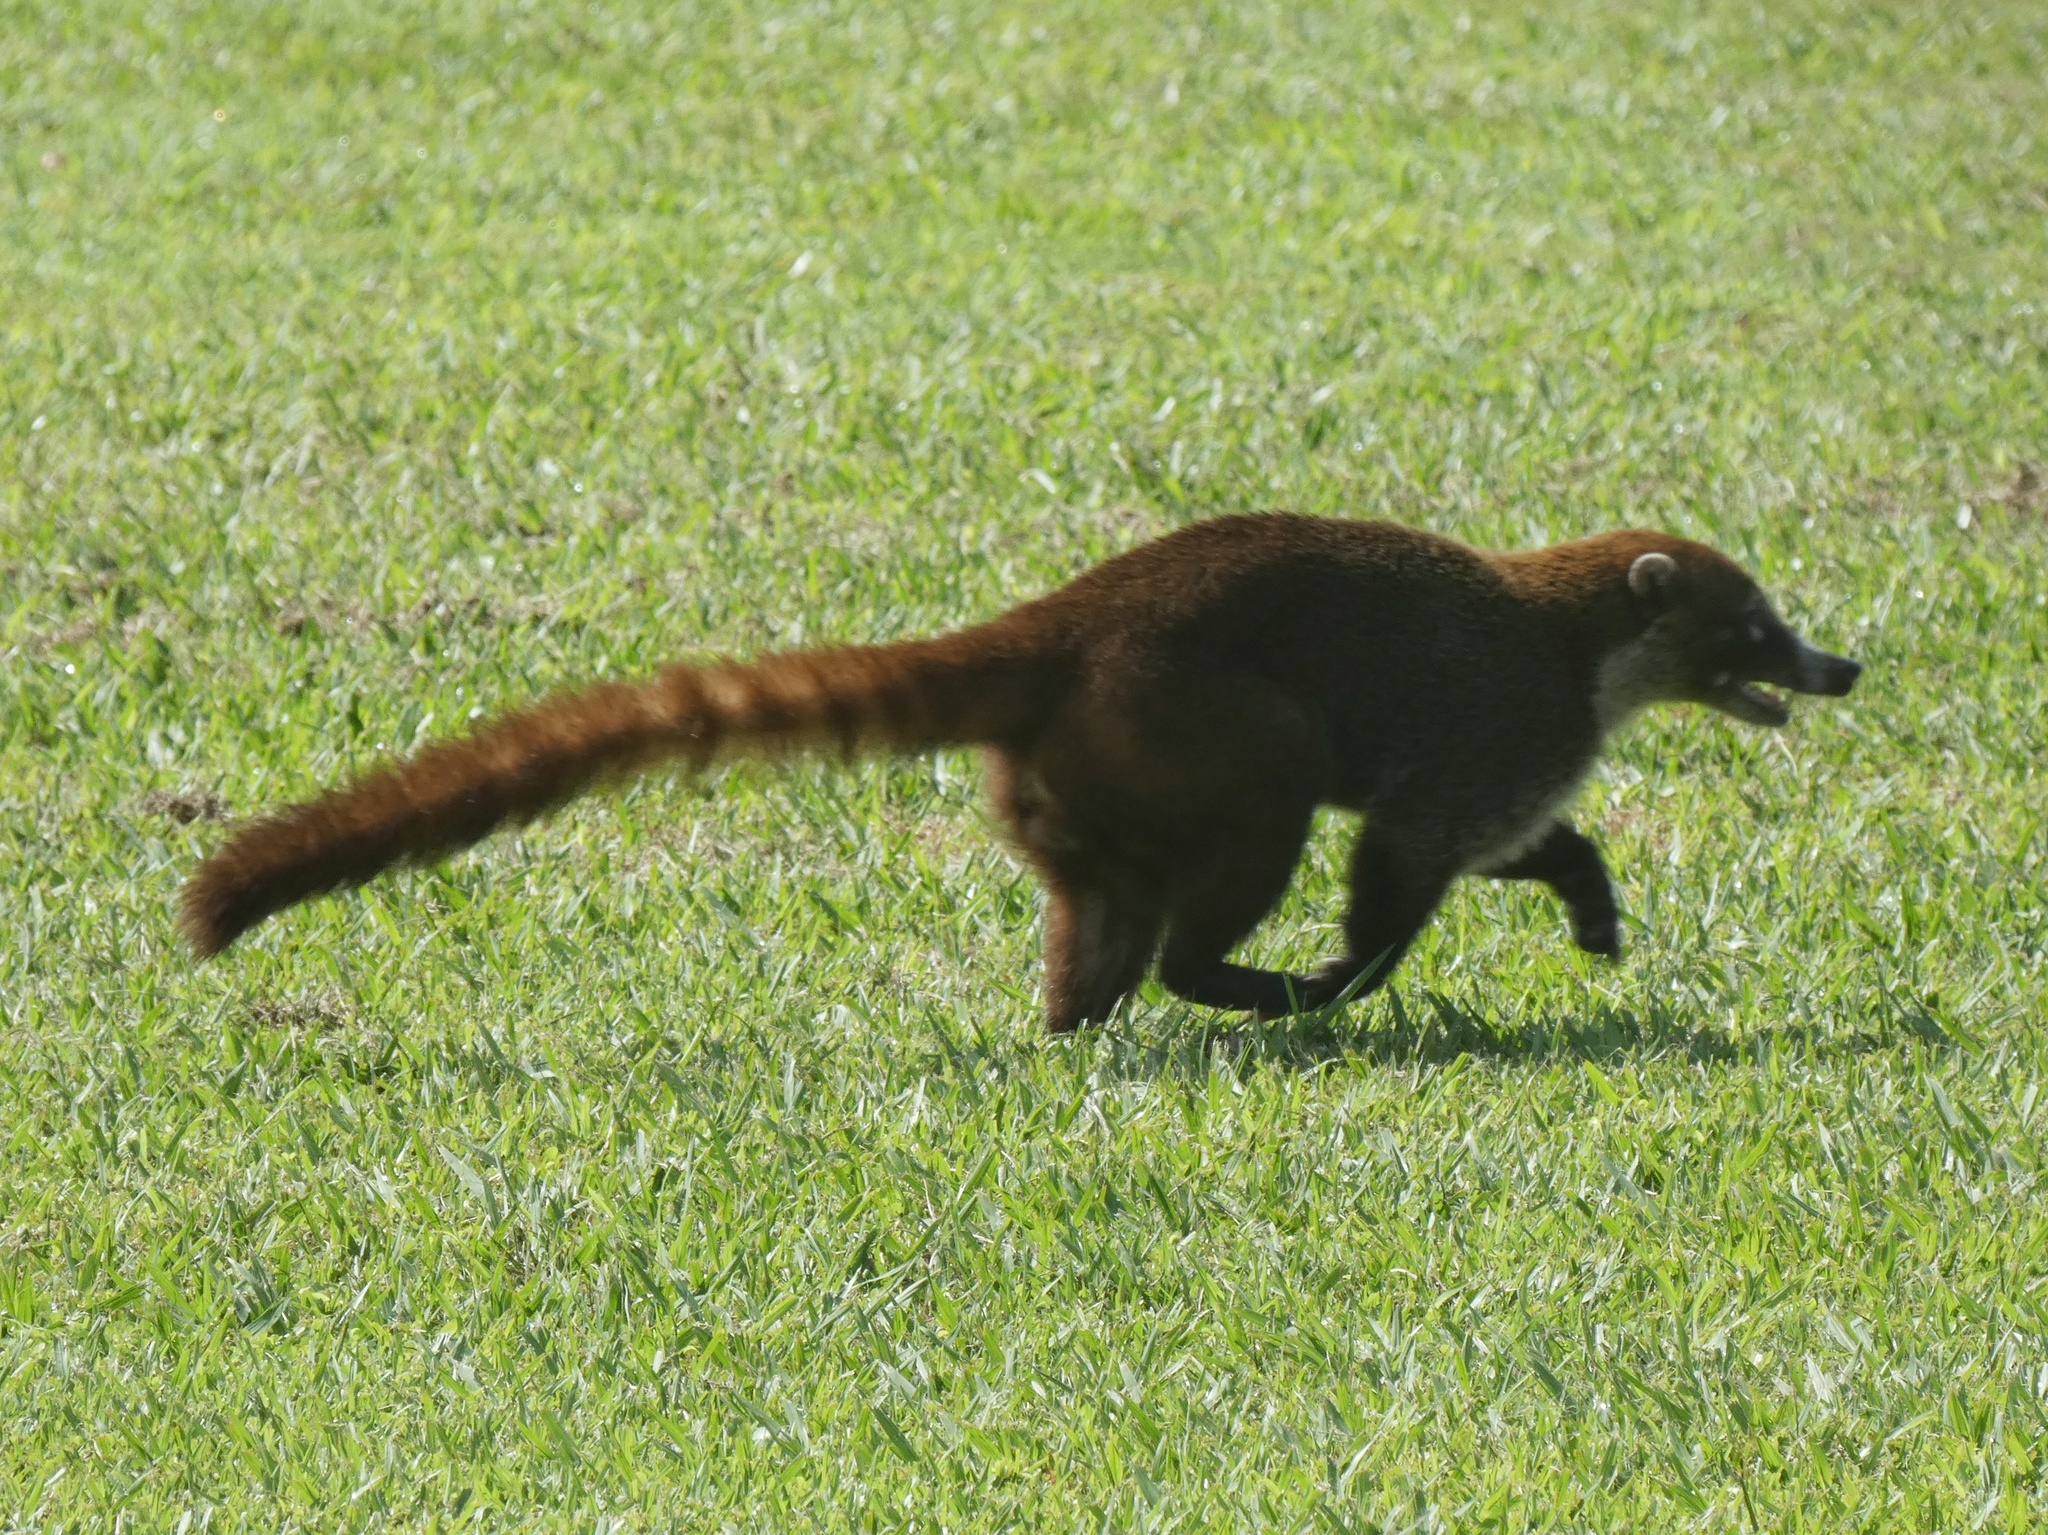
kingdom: Animalia
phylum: Chordata
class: Mammalia
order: Carnivora
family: Procyonidae
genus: Nasua
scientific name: Nasua narica
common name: White-nosed coati
